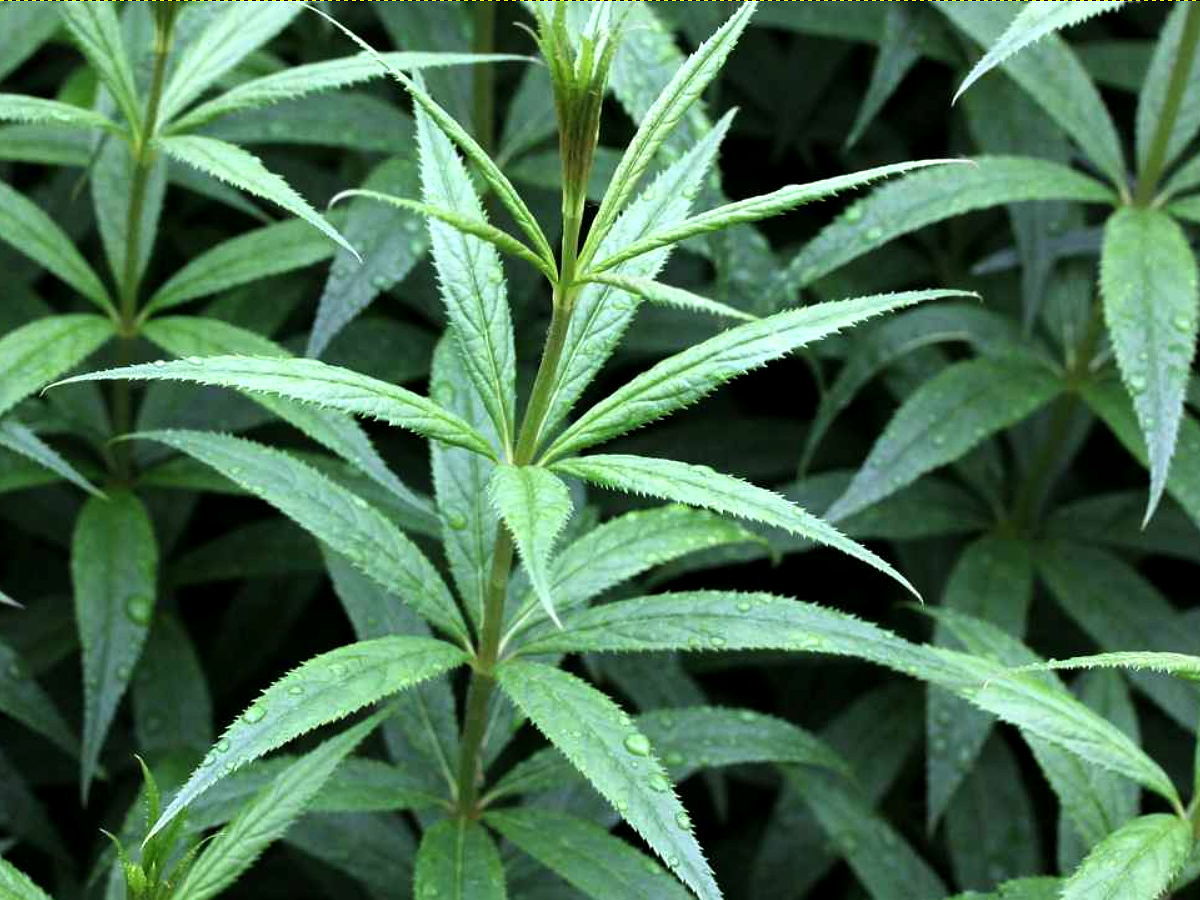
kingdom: Plantae
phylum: Tracheophyta
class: Magnoliopsida
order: Lamiales
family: Plantaginaceae
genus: Veronicastrum
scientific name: Veronicastrum virginicum
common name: Blackroot
